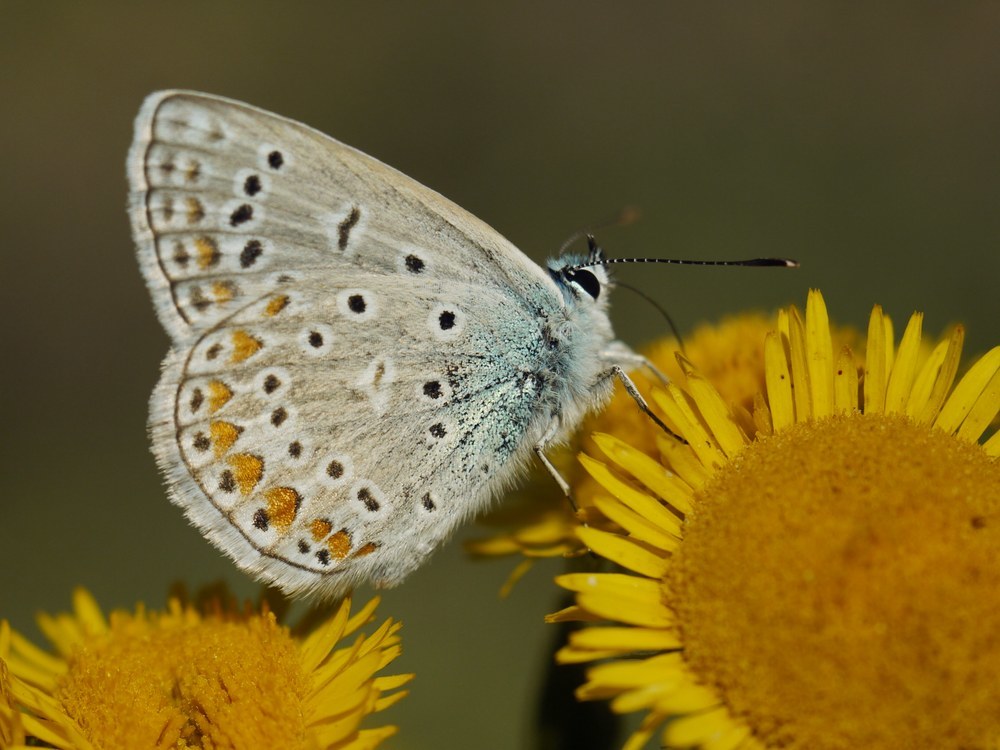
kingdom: Animalia
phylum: Arthropoda
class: Insecta
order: Lepidoptera
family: Lycaenidae
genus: Polyommatus
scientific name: Polyommatus icarus
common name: Common blue
